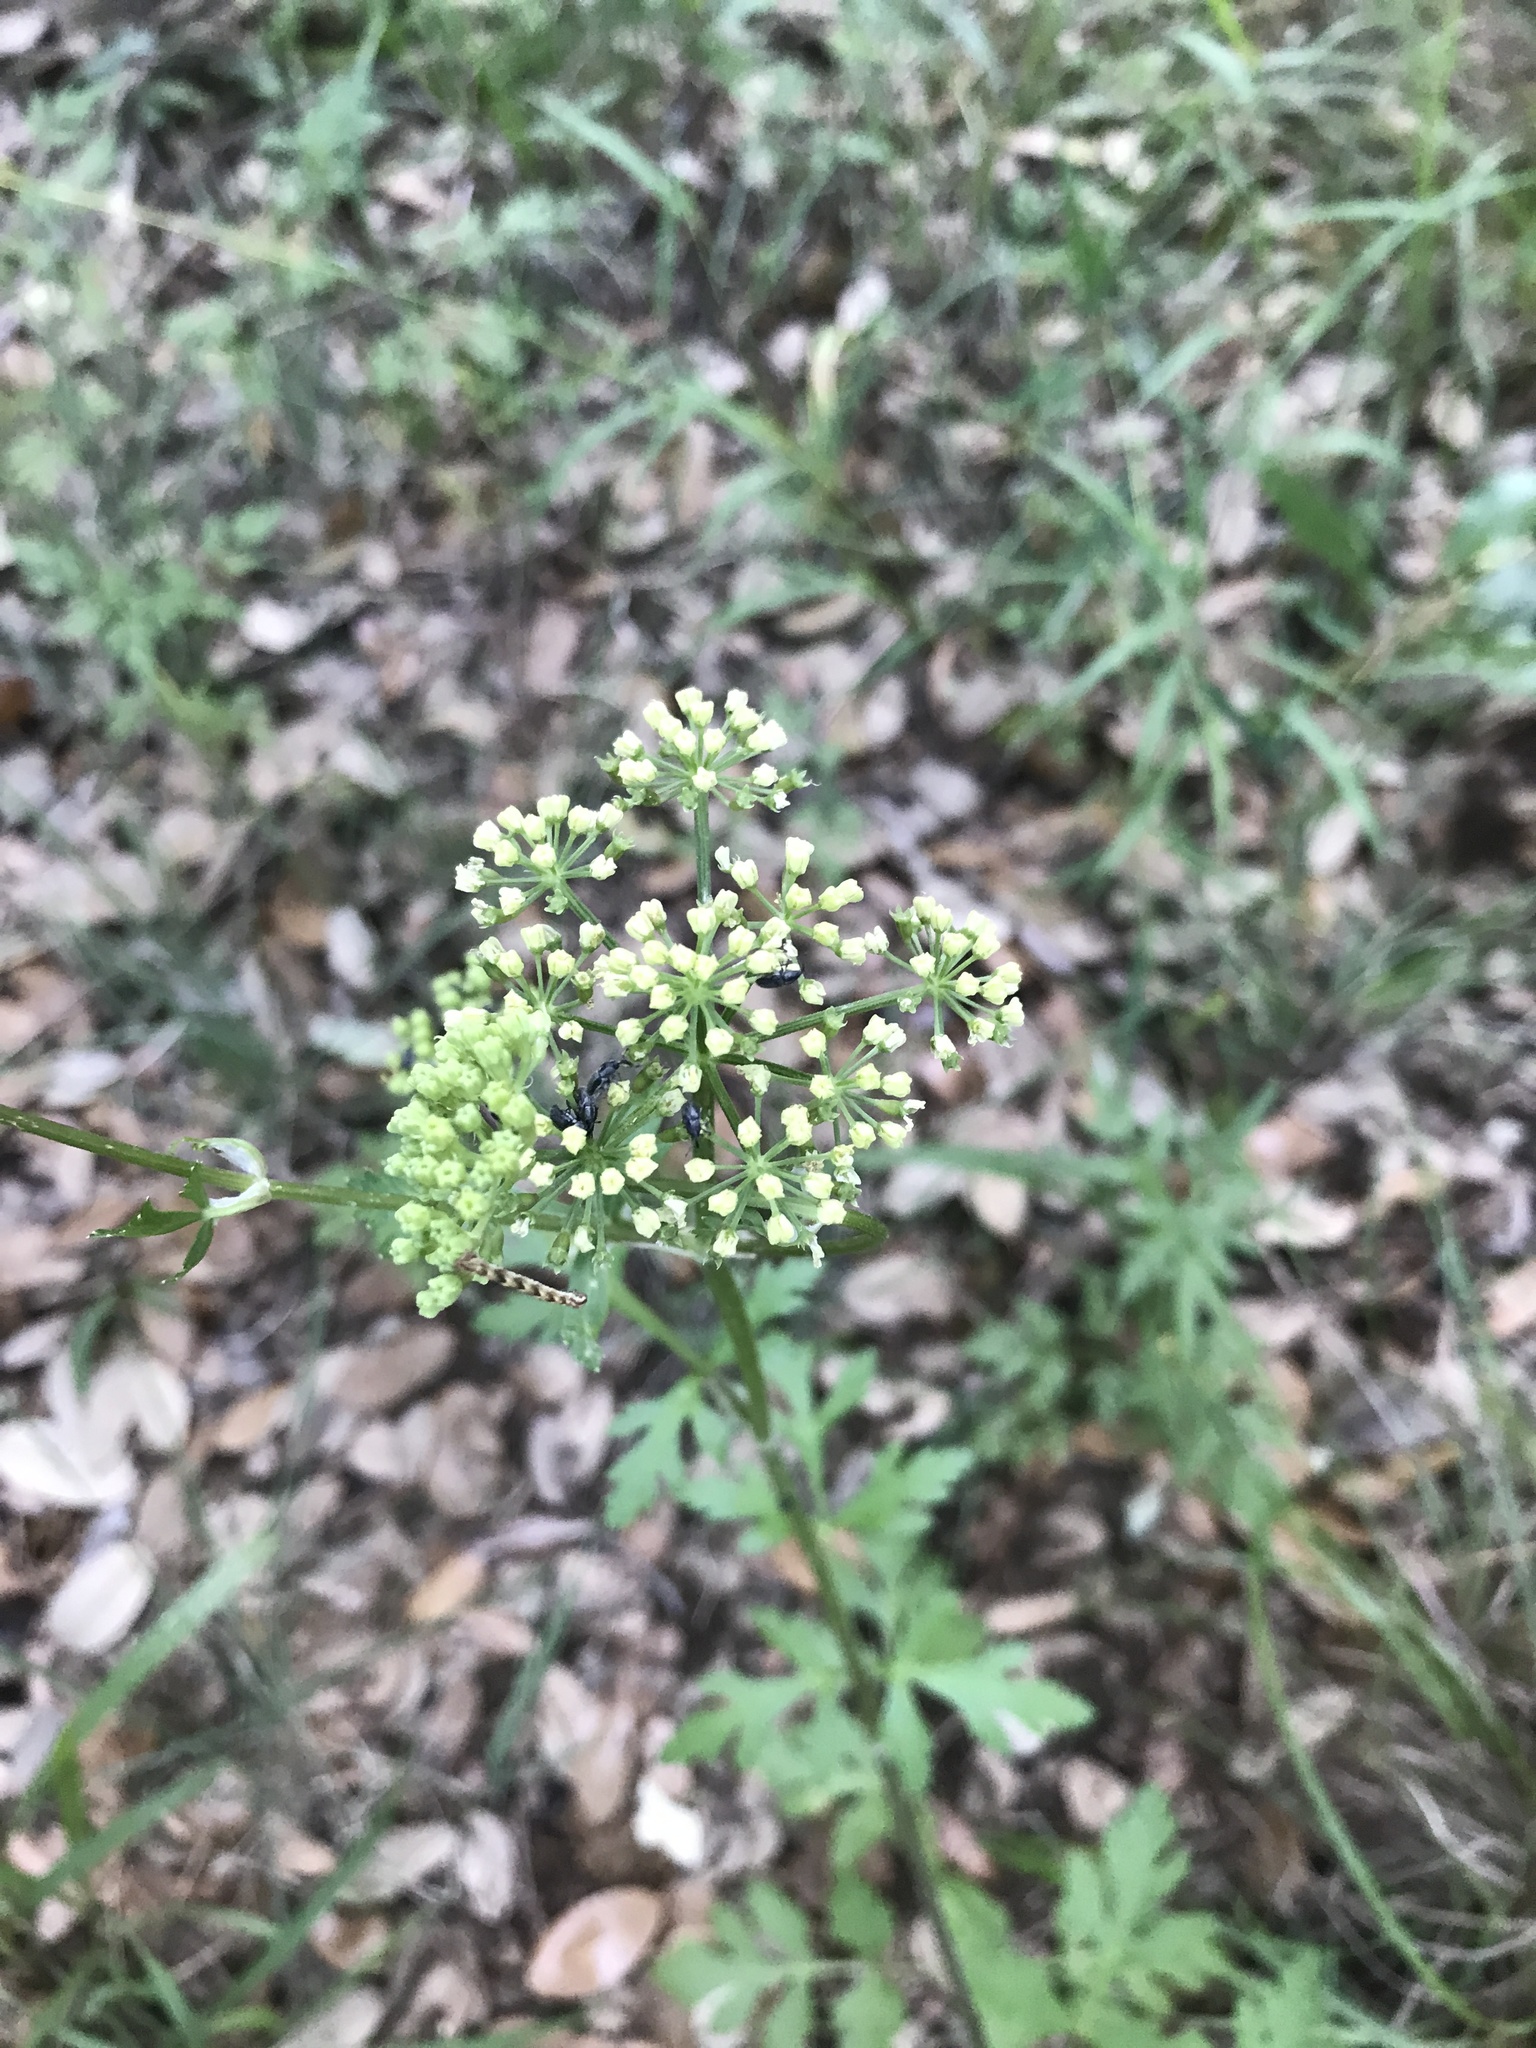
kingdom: Plantae
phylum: Tracheophyta
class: Magnoliopsida
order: Apiales
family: Apiaceae
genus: Polytaenia
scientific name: Polytaenia texana
